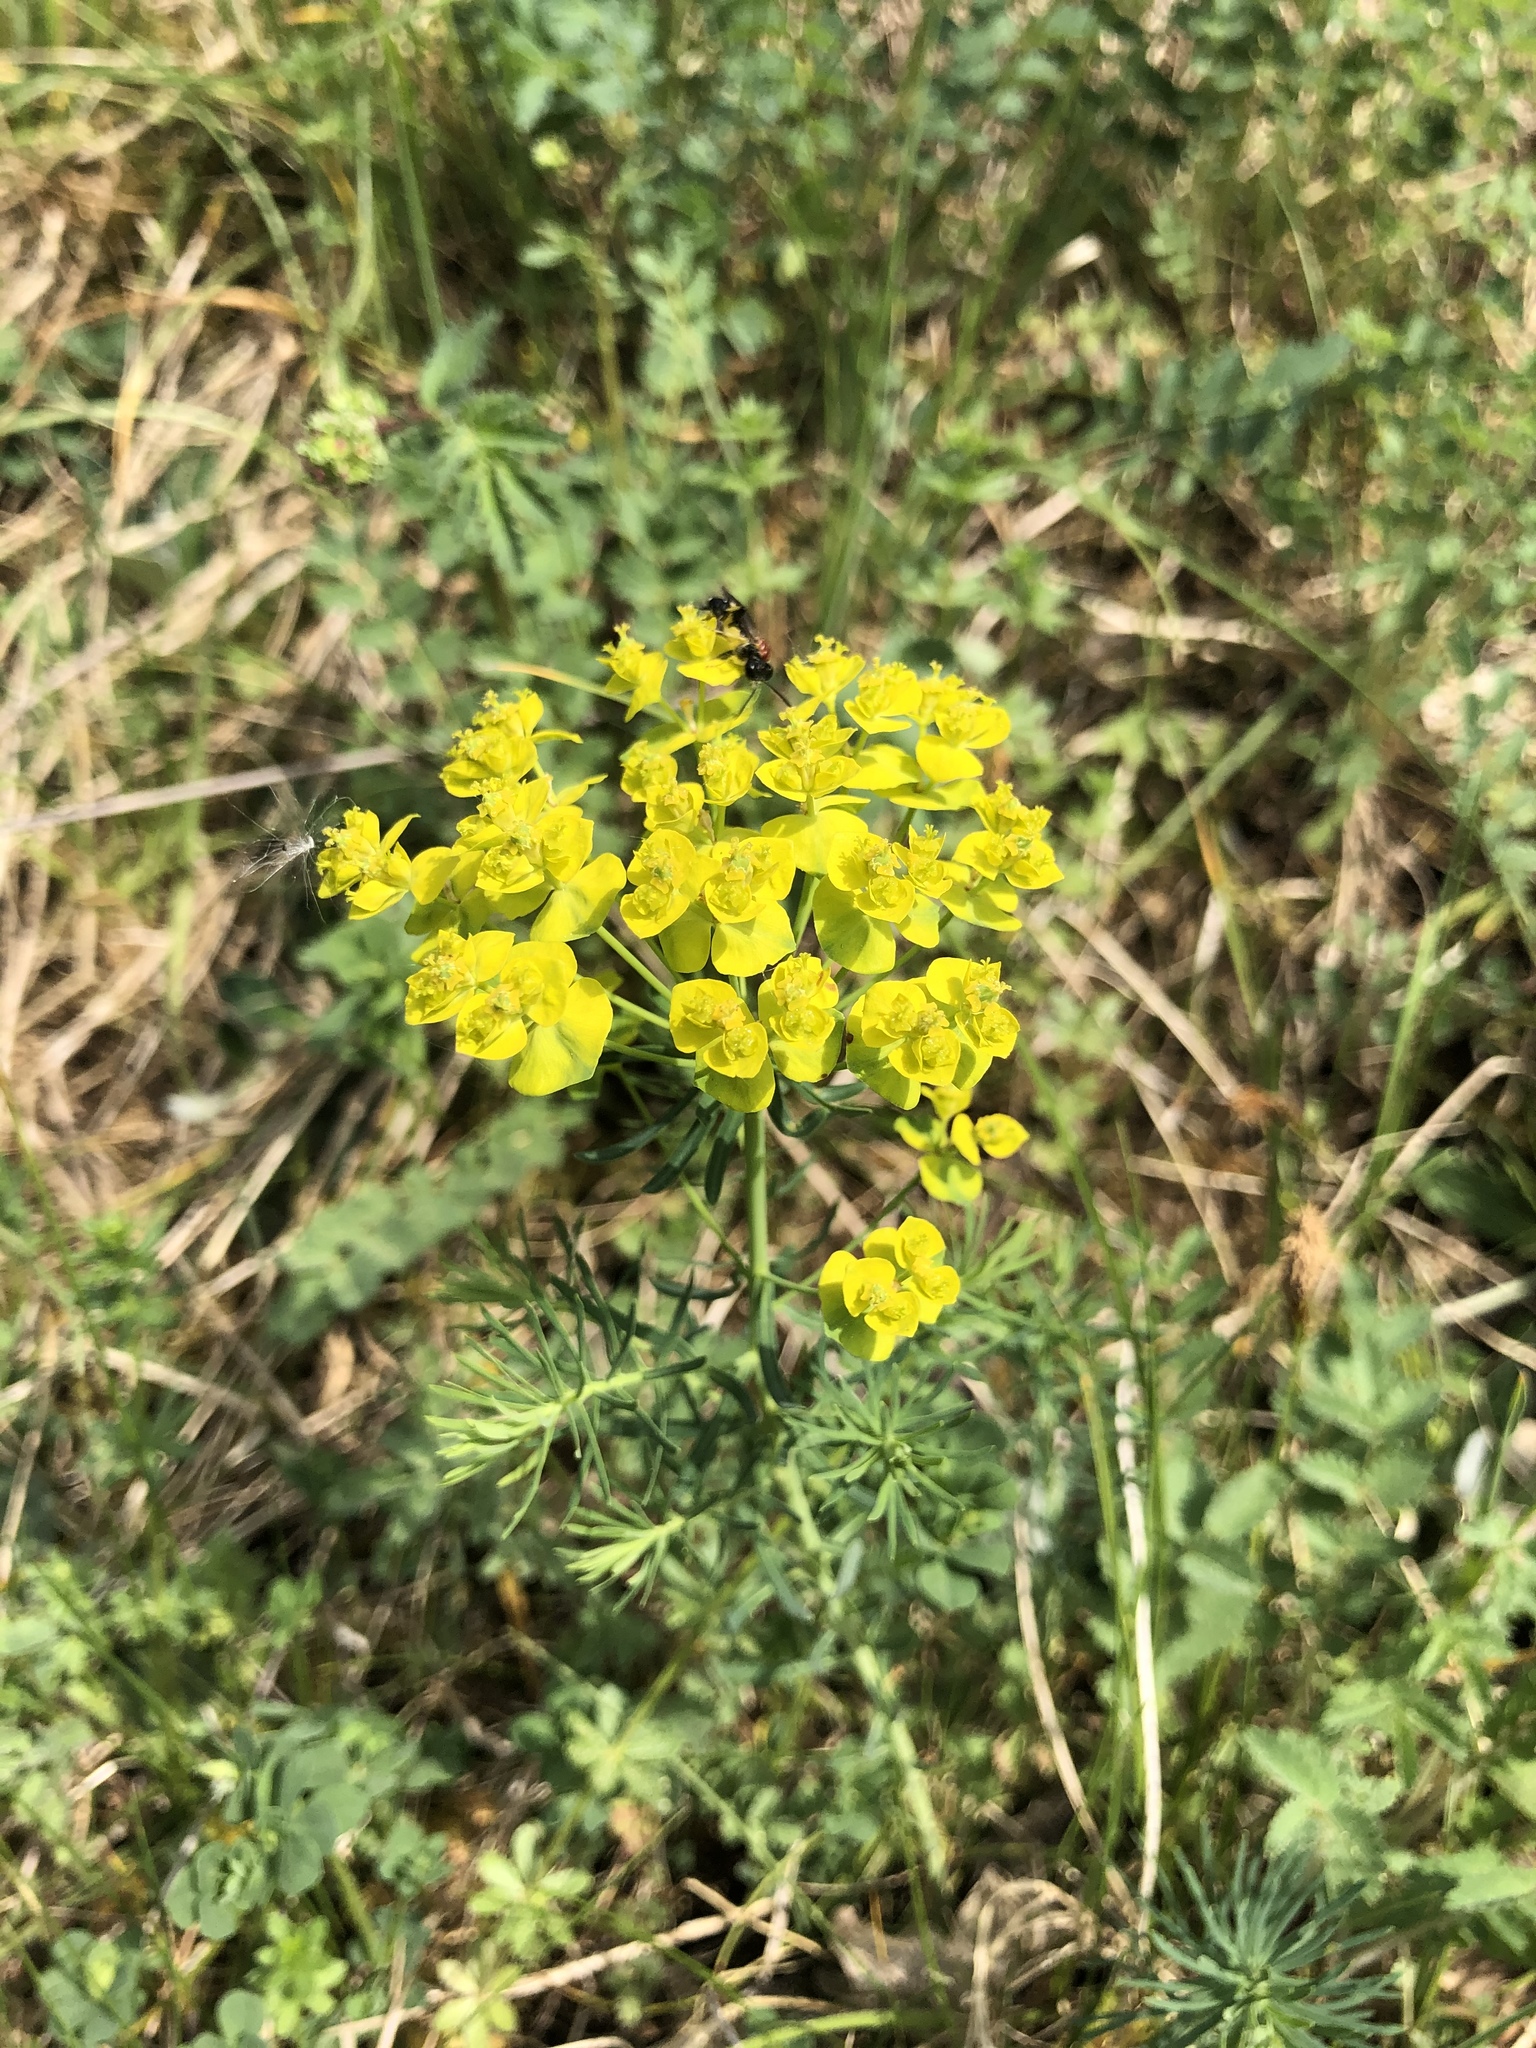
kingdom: Plantae
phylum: Tracheophyta
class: Magnoliopsida
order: Malpighiales
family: Euphorbiaceae
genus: Euphorbia
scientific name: Euphorbia cyparissias
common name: Cypress spurge
